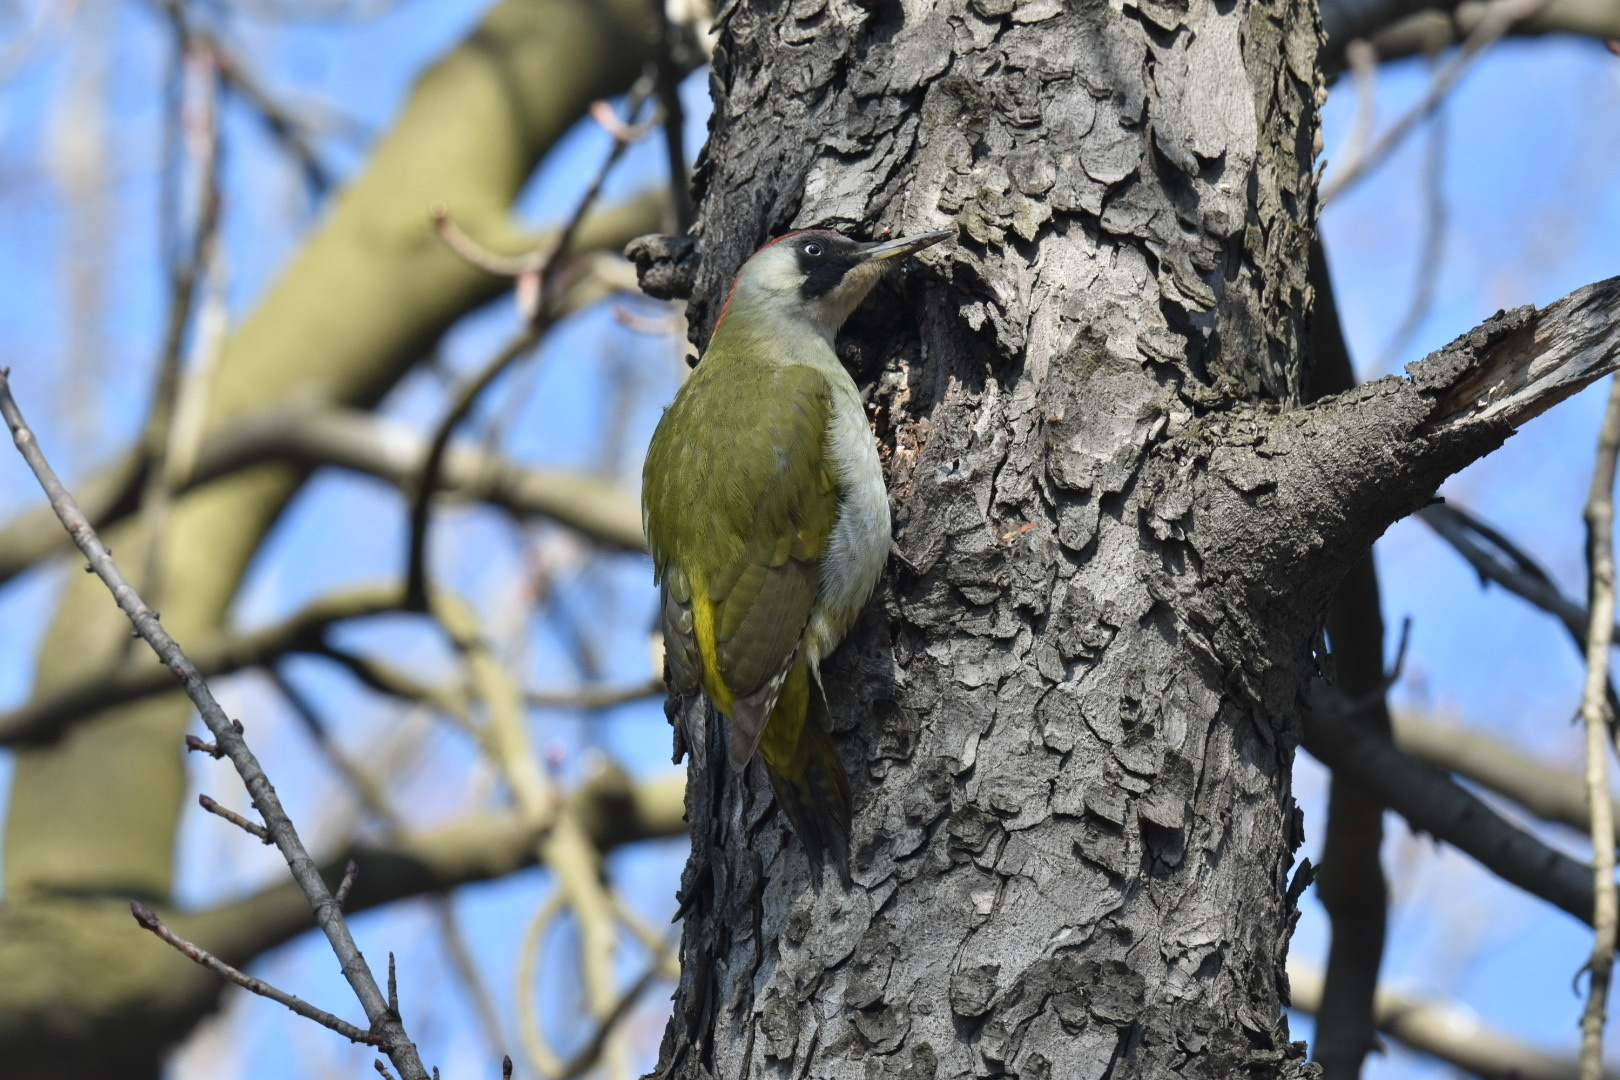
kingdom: Animalia
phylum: Chordata
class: Aves
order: Piciformes
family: Picidae
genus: Picus
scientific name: Picus viridis
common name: European green woodpecker
